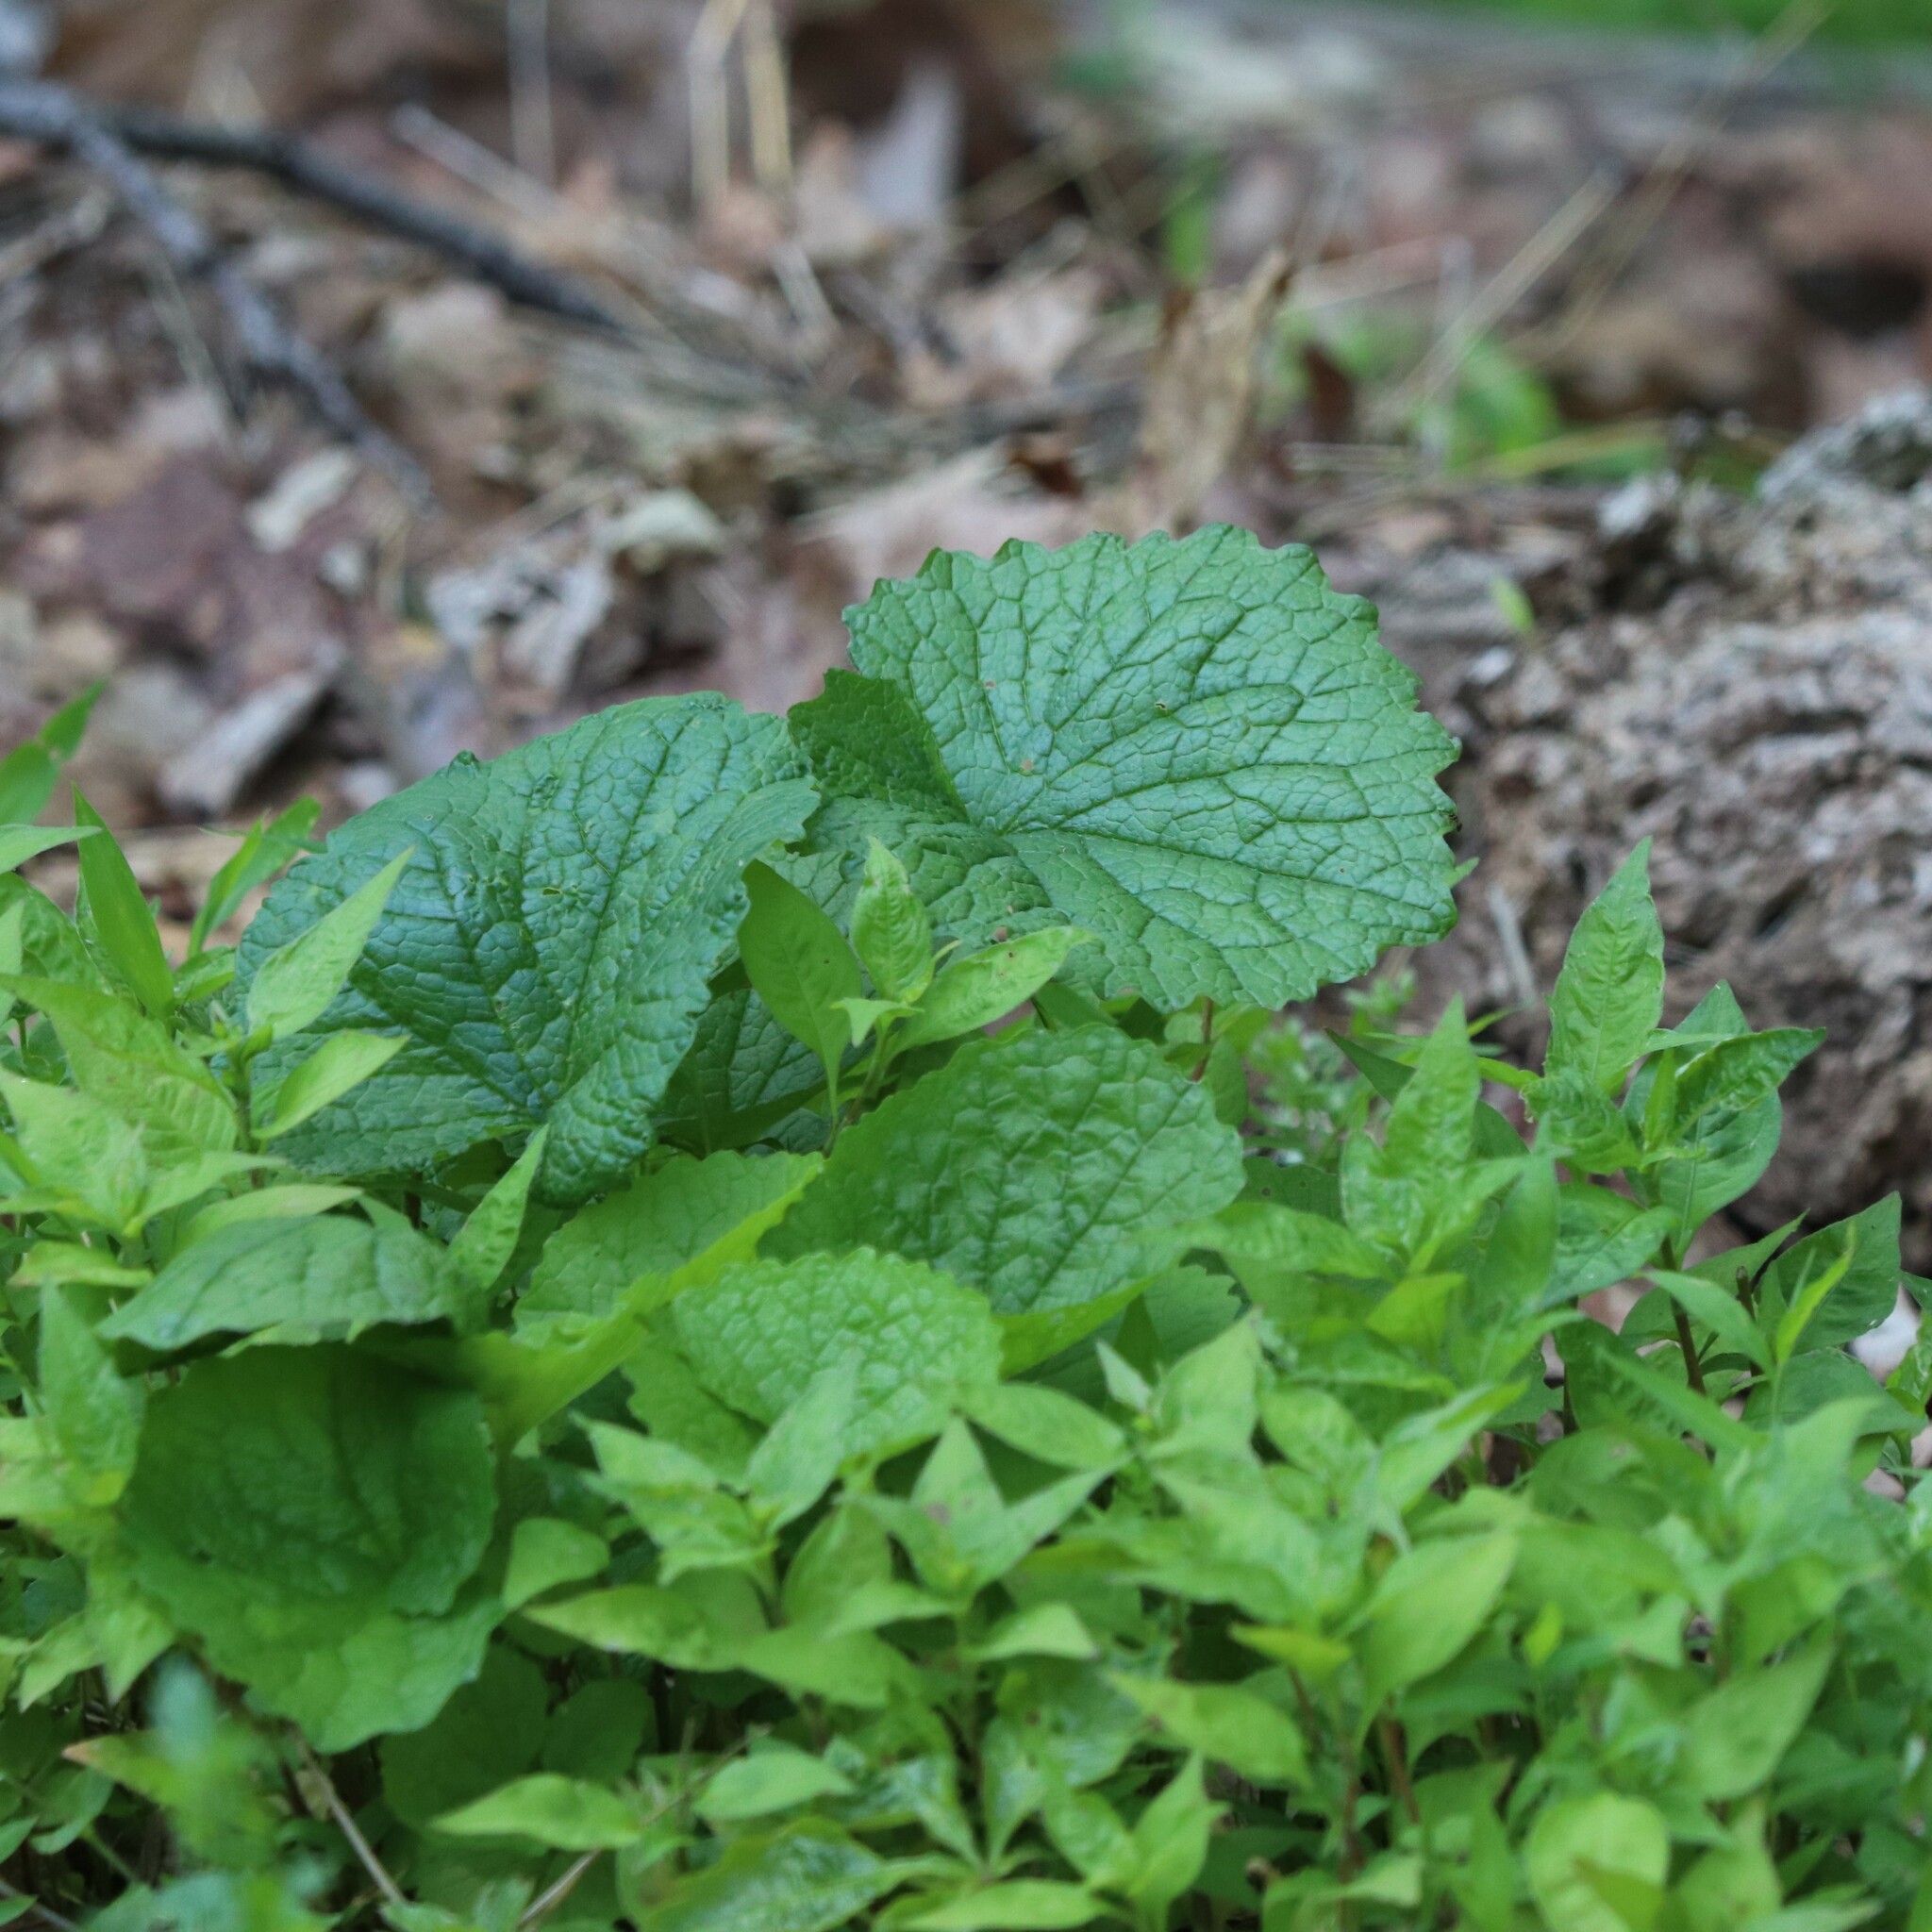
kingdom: Plantae
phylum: Tracheophyta
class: Magnoliopsida
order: Brassicales
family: Brassicaceae
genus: Alliaria
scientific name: Alliaria petiolata
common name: Garlic mustard
